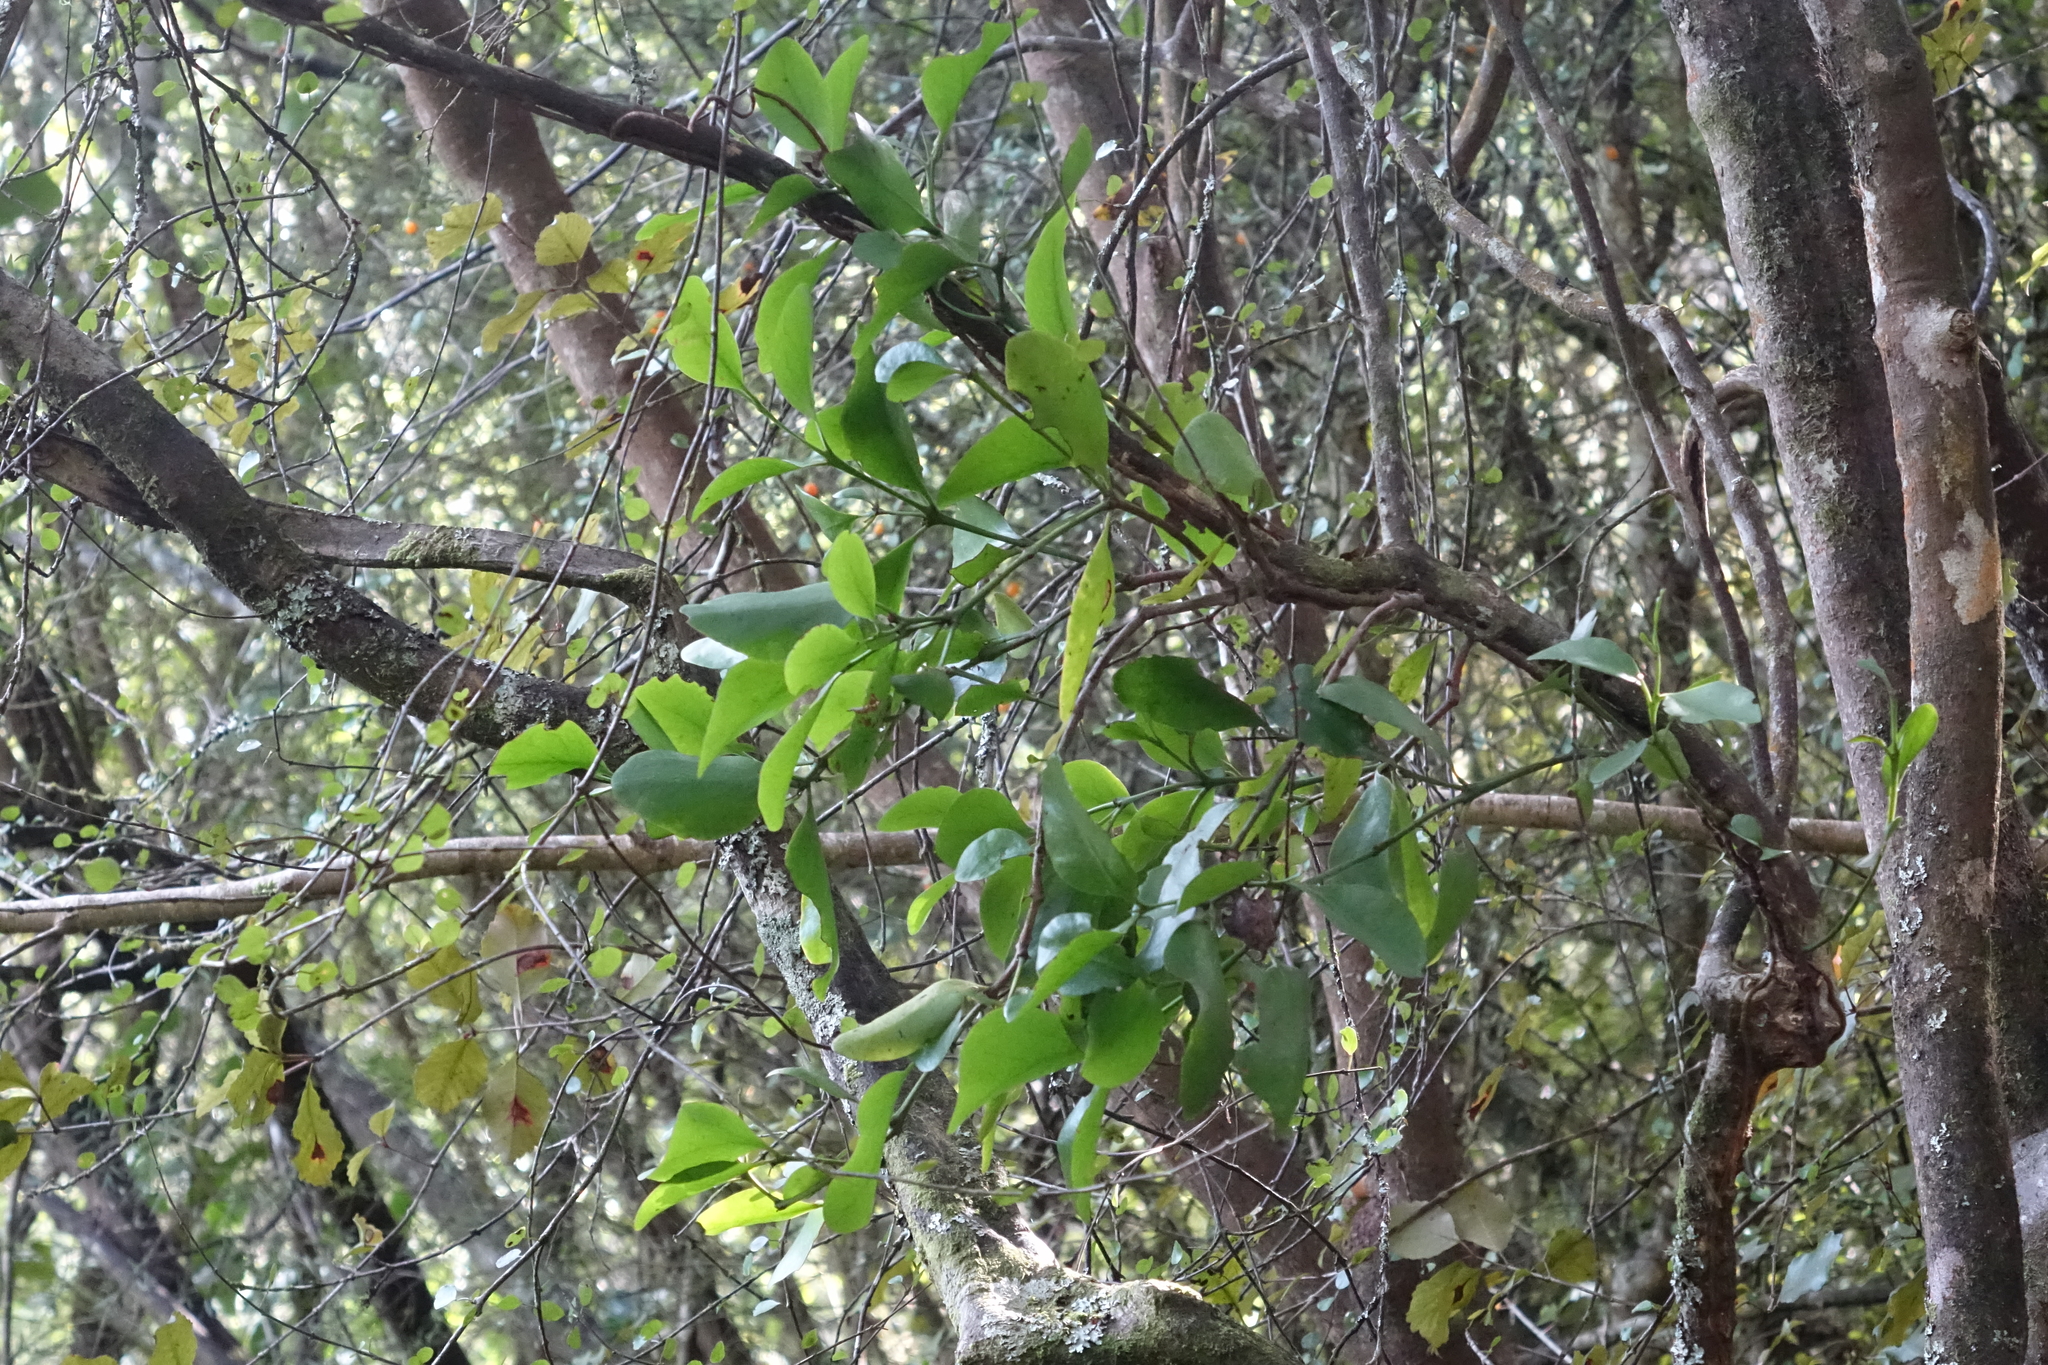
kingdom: Plantae
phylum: Tracheophyta
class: Magnoliopsida
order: Santalales
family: Loranthaceae
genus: Ileostylus
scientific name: Ileostylus micranthus
